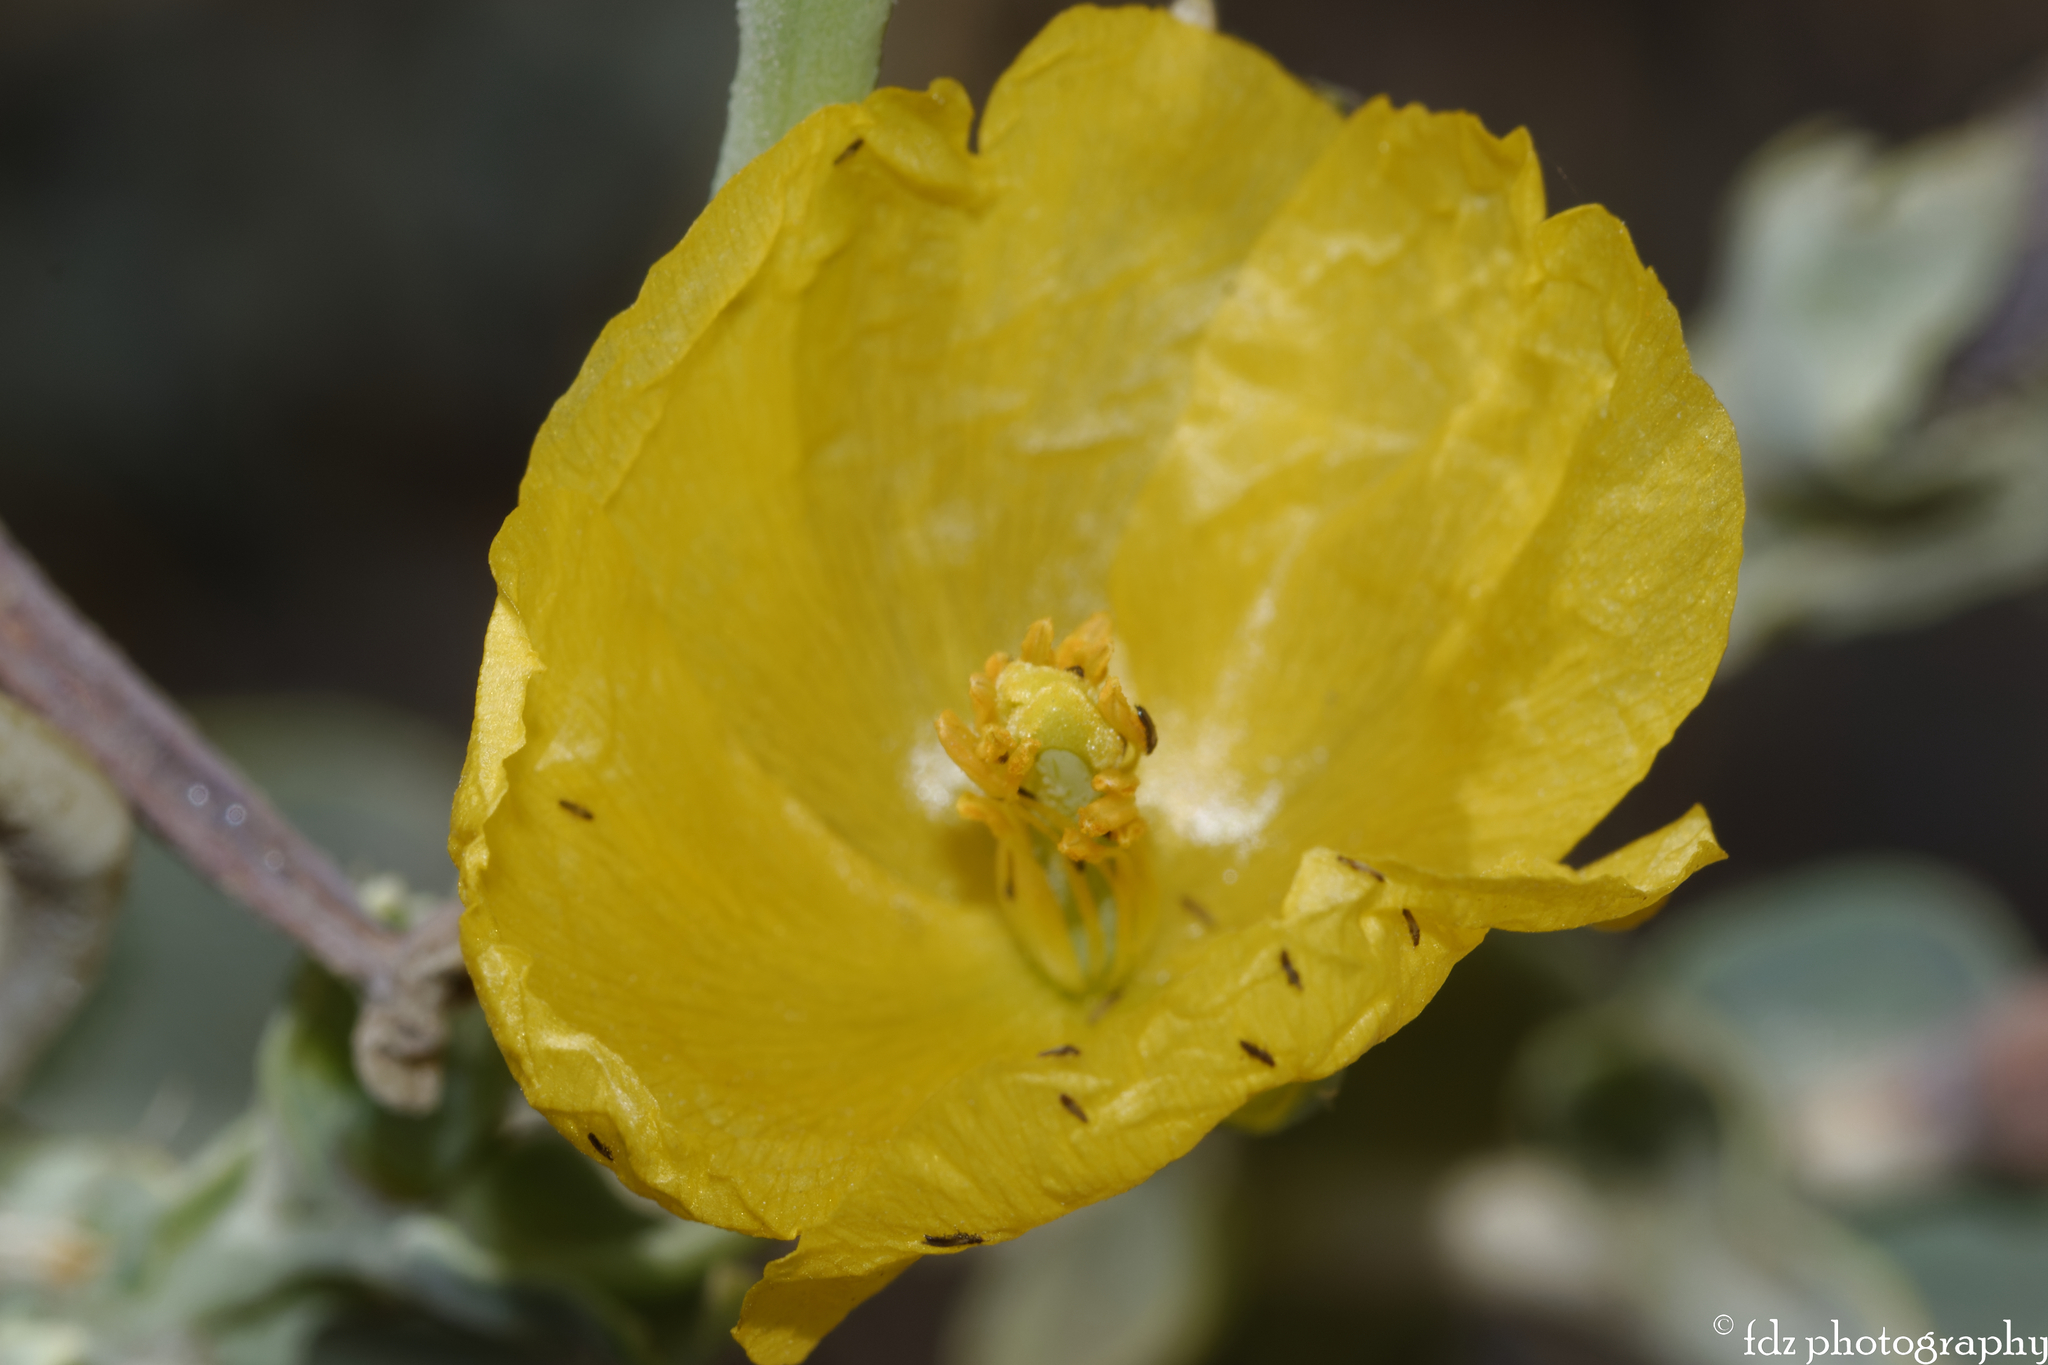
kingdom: Plantae
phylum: Tracheophyta
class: Magnoliopsida
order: Ranunculales
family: Papaveraceae
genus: Glaucium
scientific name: Glaucium flavum
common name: Yellow horned-poppy
